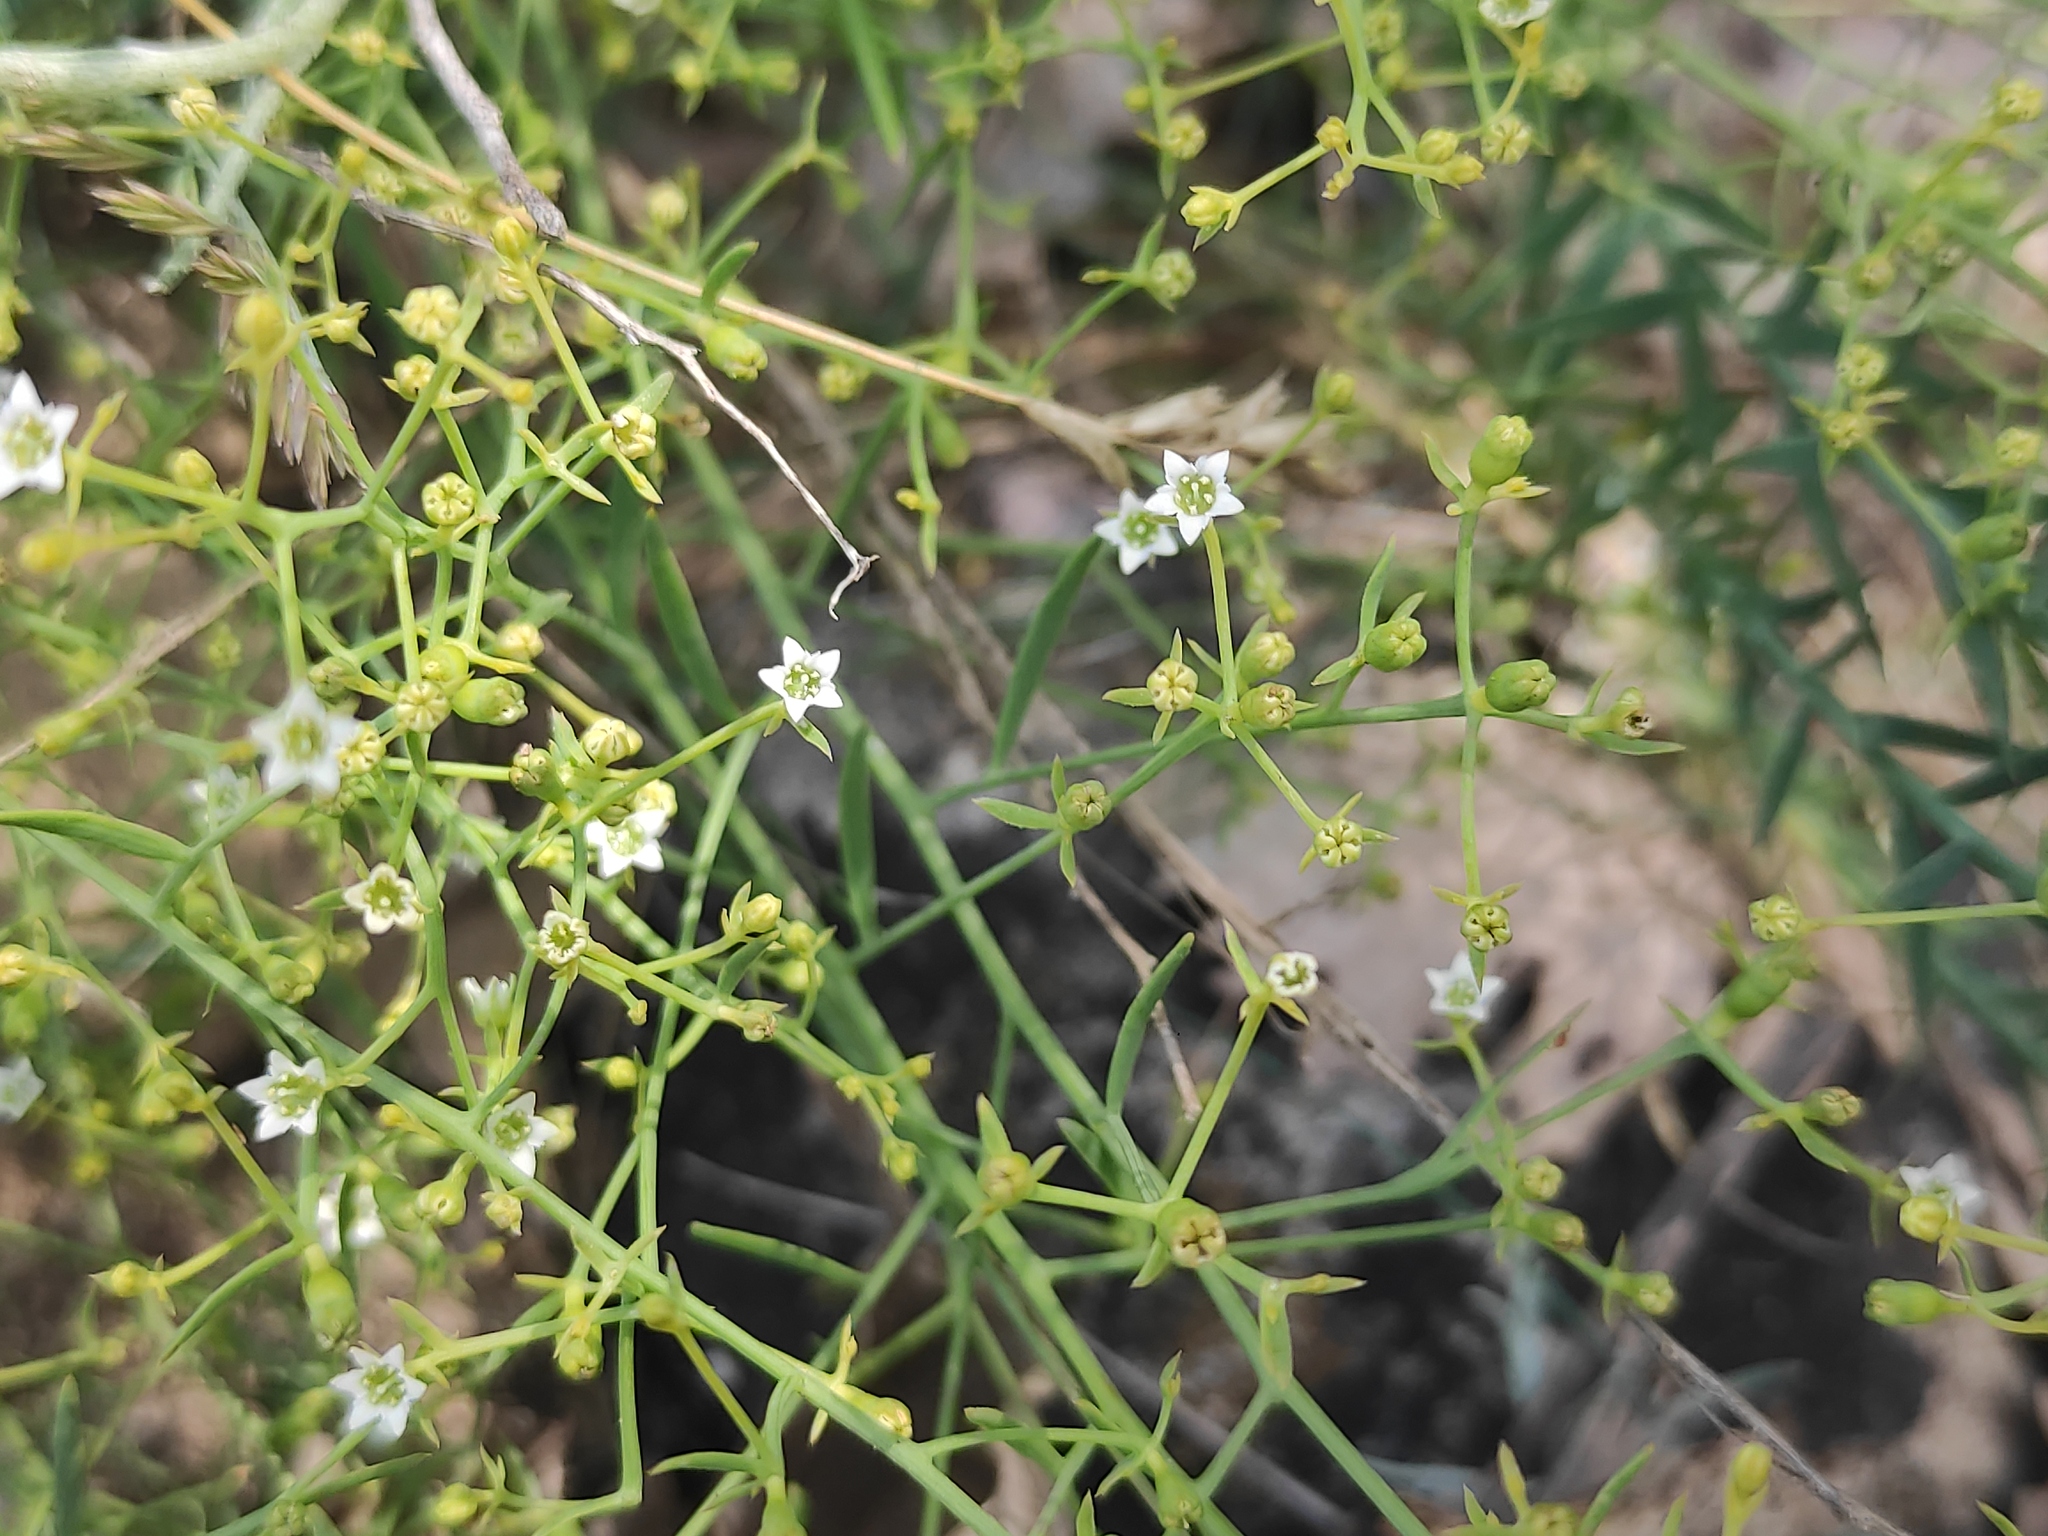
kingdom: Plantae
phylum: Tracheophyta
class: Magnoliopsida
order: Santalales
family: Thesiaceae
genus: Thesium
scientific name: Thesium divaricatum
